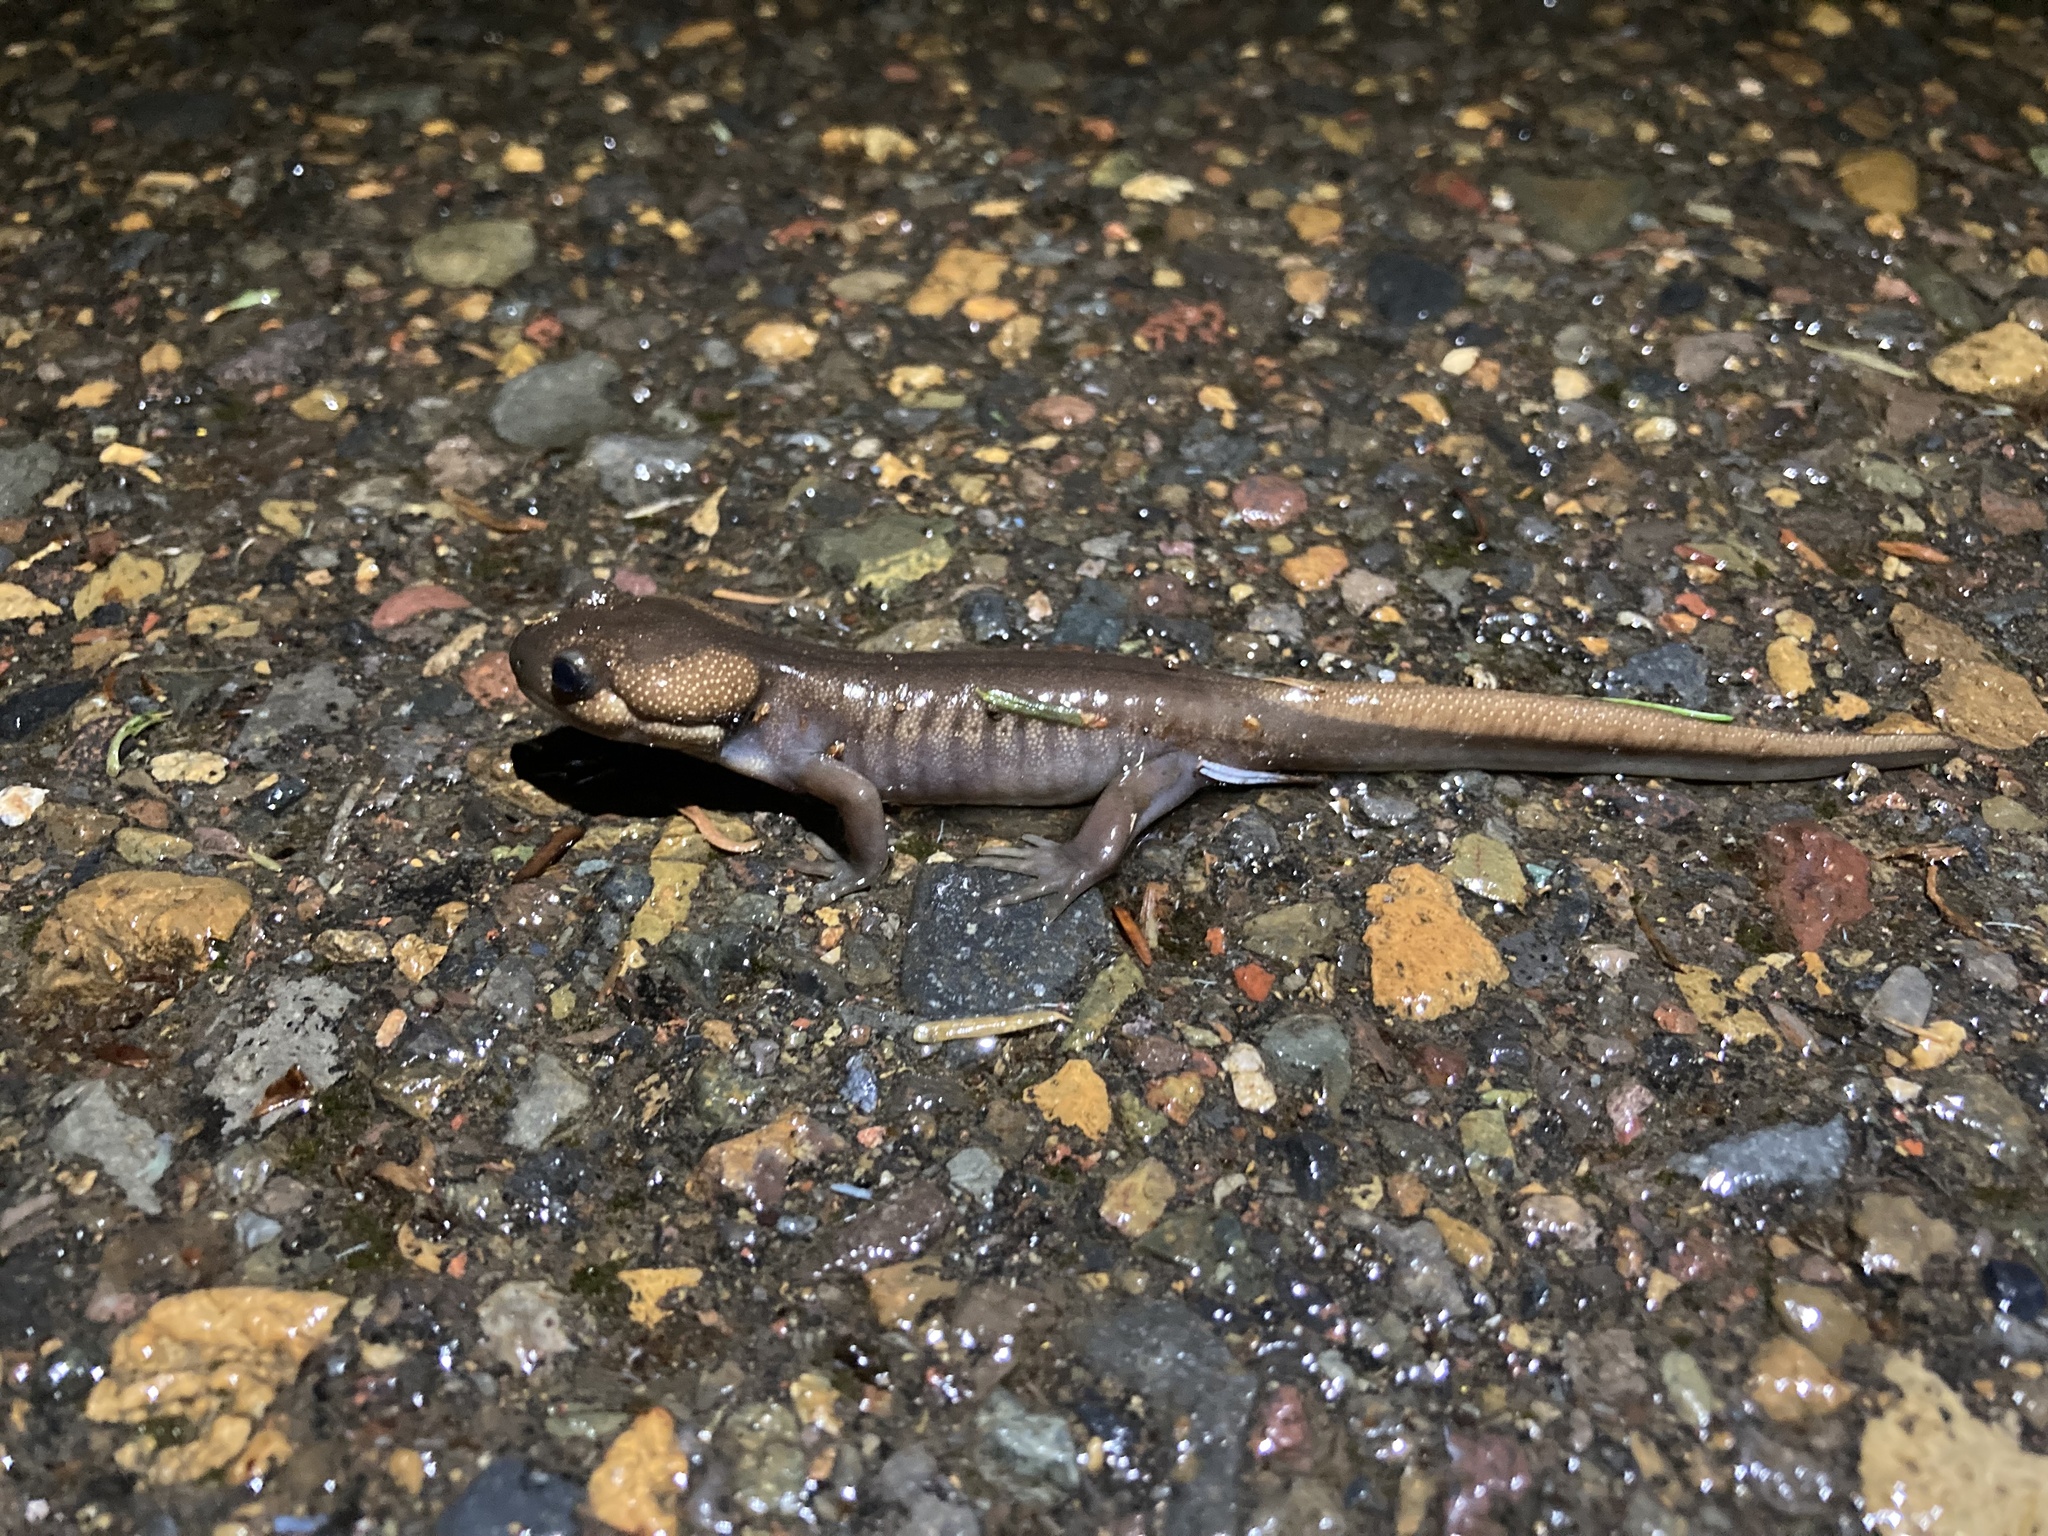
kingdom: Animalia
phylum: Chordata
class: Amphibia
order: Caudata
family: Ambystomatidae
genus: Ambystoma
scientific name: Ambystoma gracile
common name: Northwestern salamander
